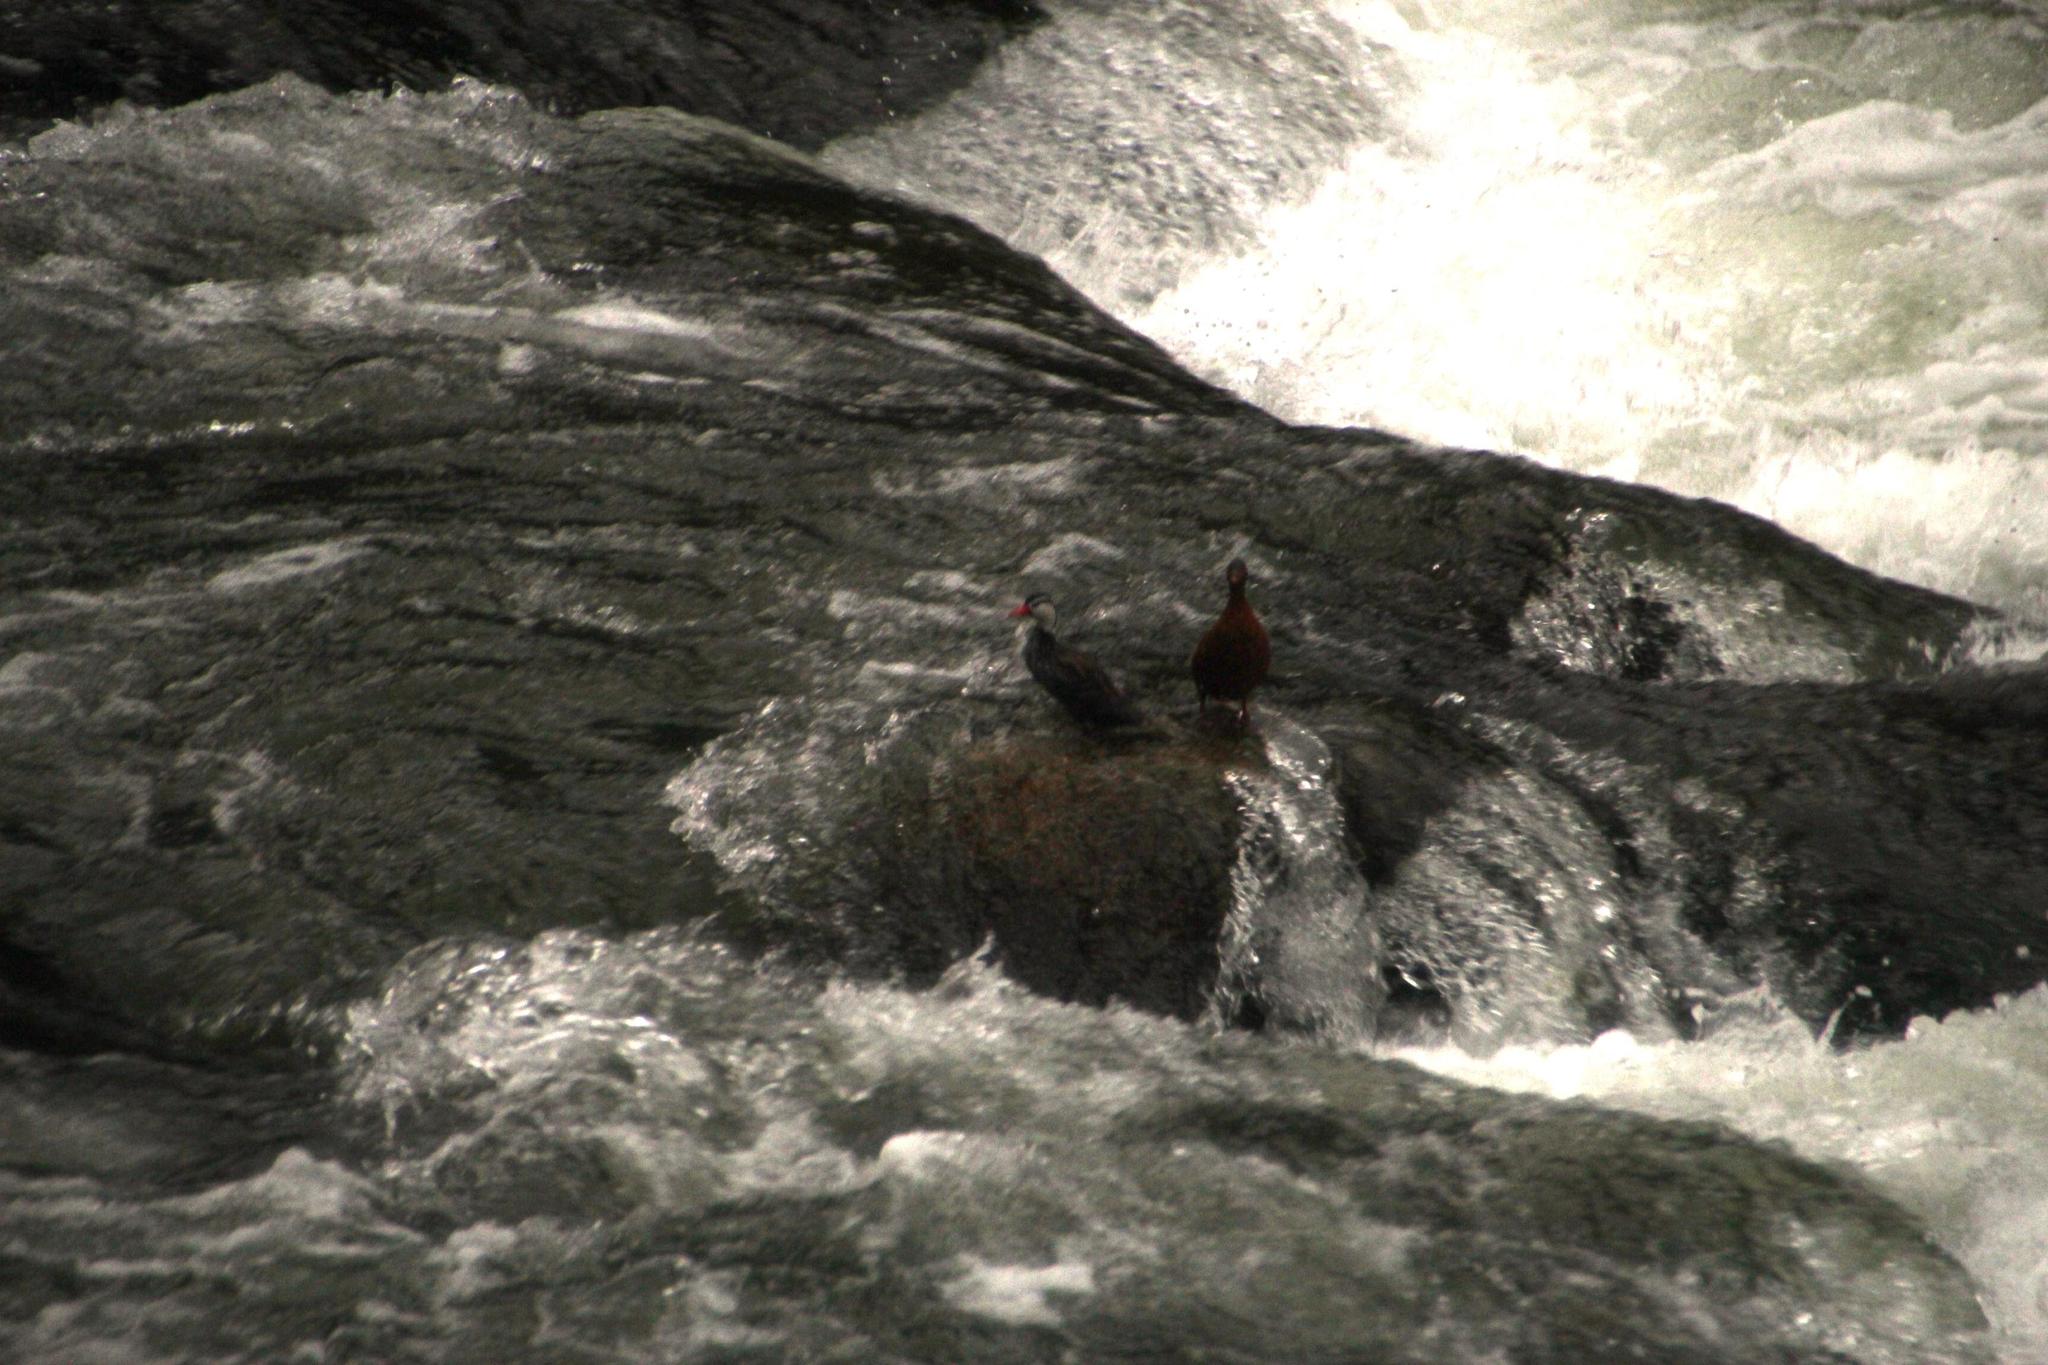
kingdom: Animalia
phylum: Chordata
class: Aves
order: Anseriformes
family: Anatidae
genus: Merganetta
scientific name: Merganetta armata
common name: Torrent duck
